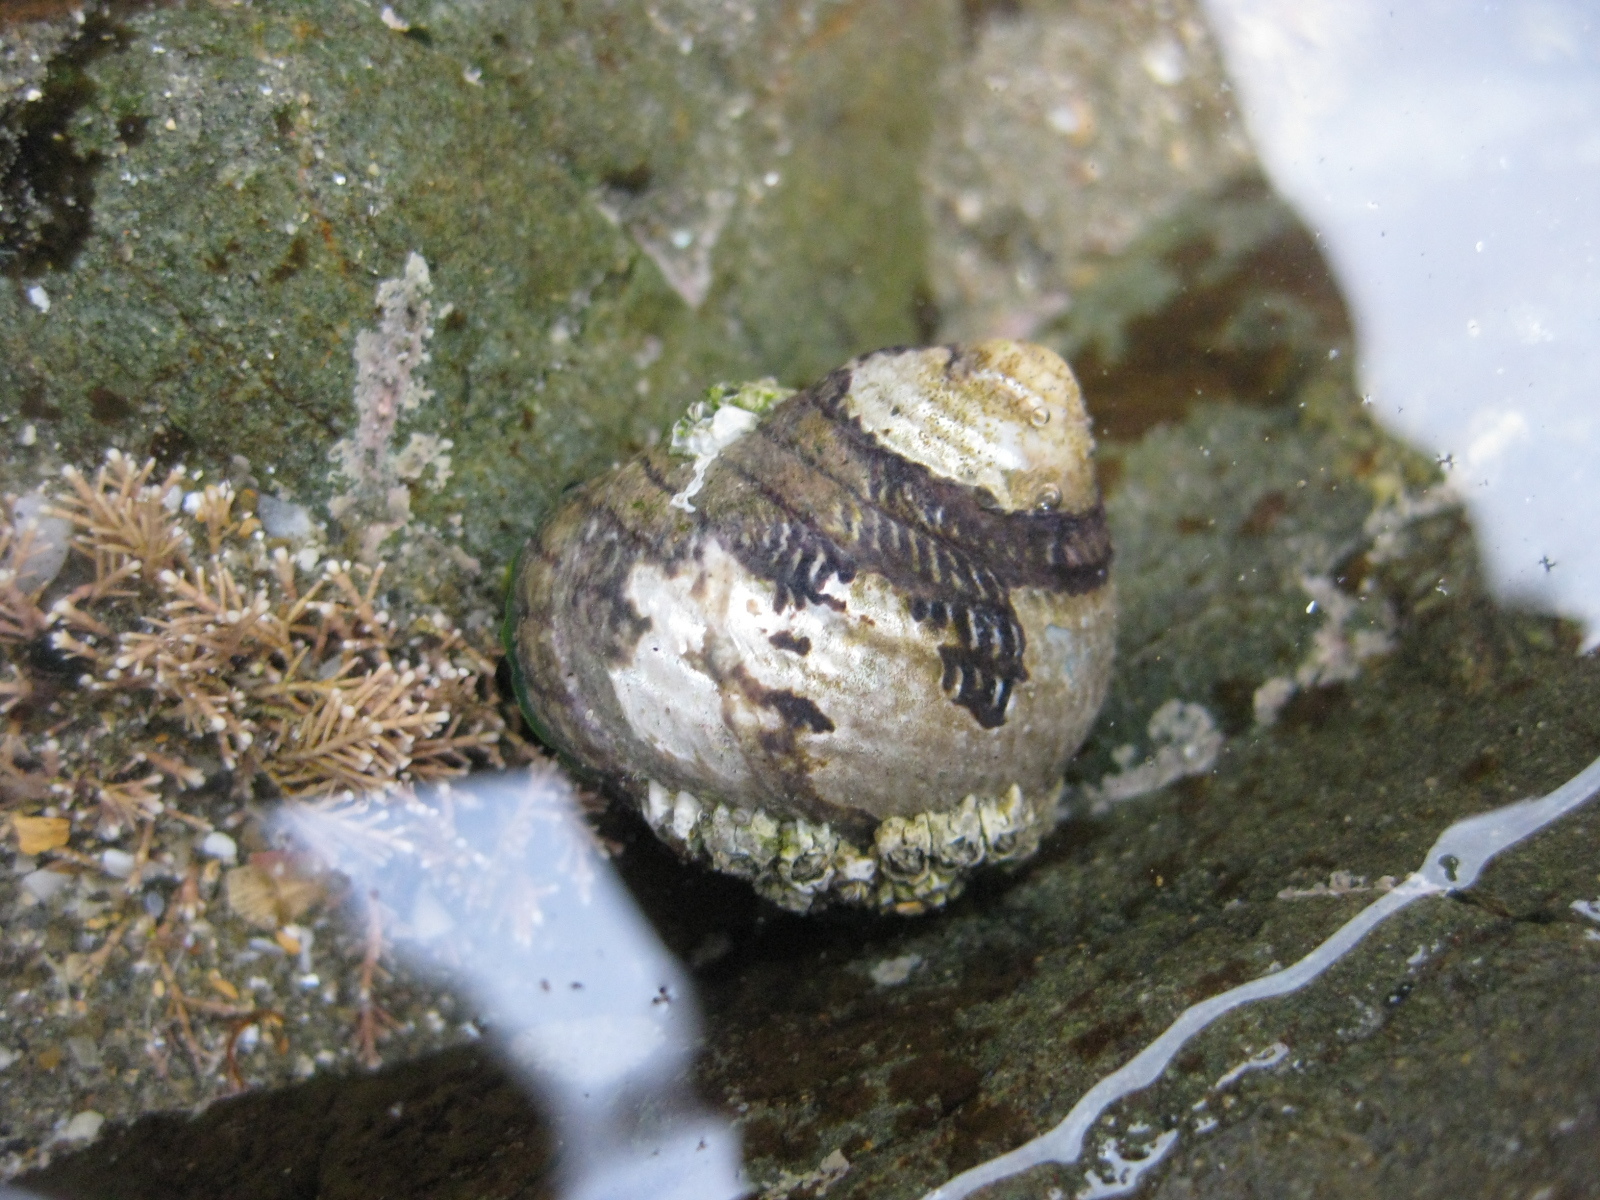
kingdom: Animalia
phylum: Mollusca
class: Gastropoda
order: Trochida
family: Trochidae
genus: Diloma
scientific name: Diloma aethiops
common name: Scorched monodont
